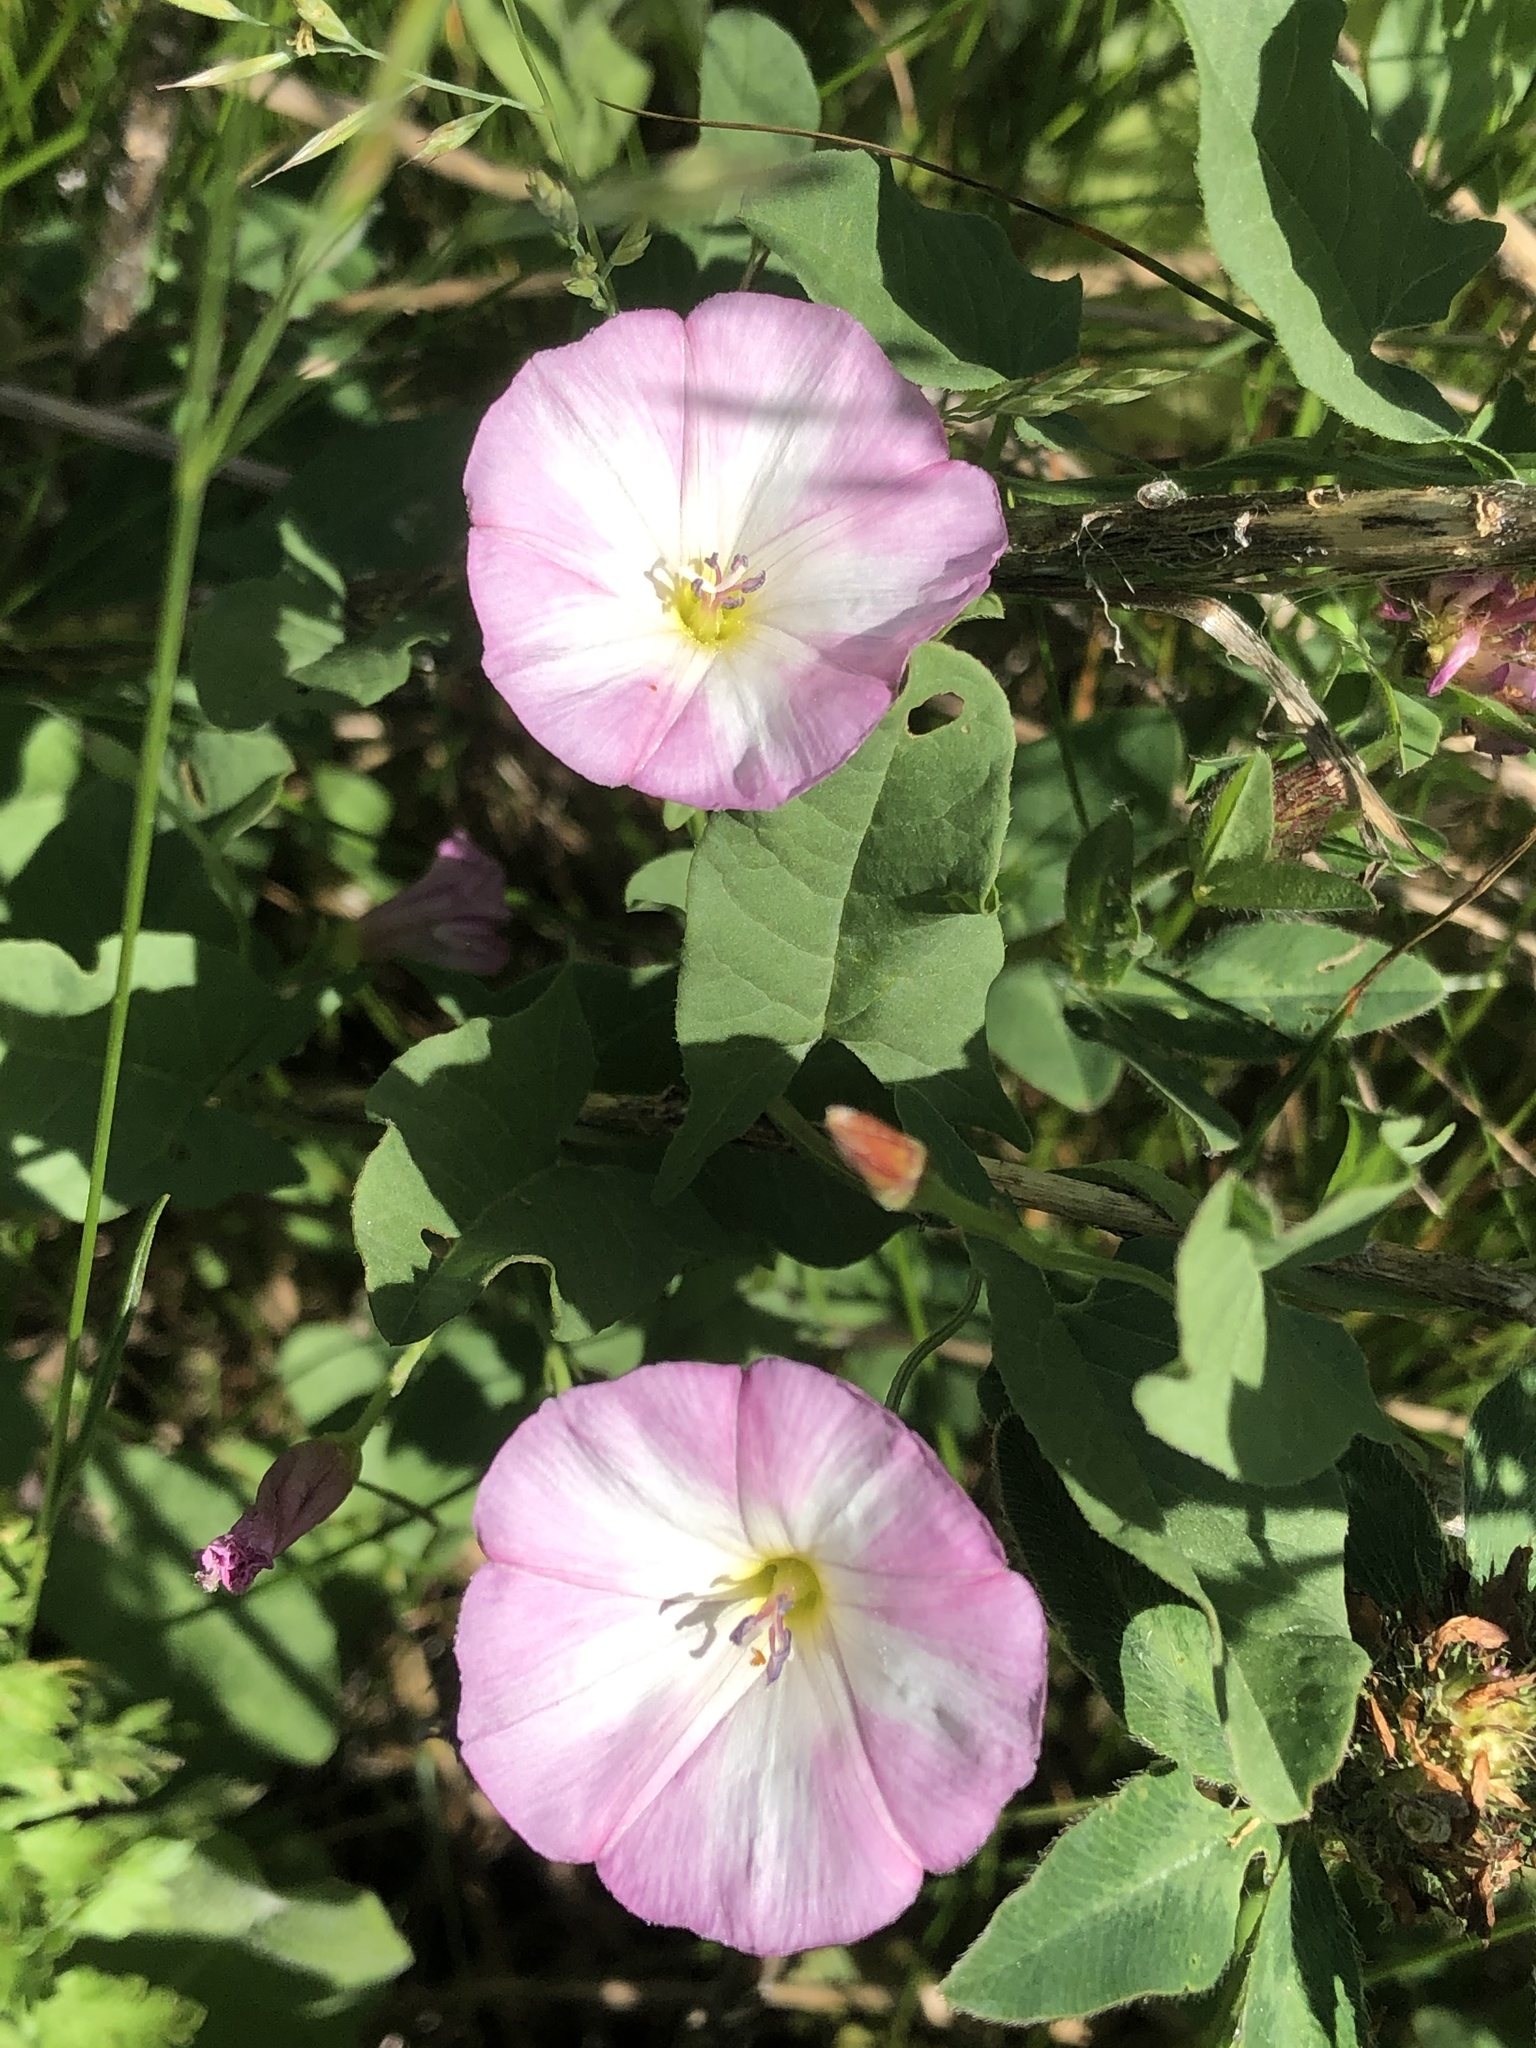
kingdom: Plantae
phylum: Tracheophyta
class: Magnoliopsida
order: Solanales
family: Convolvulaceae
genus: Convolvulus
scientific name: Convolvulus arvensis
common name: Field bindweed
